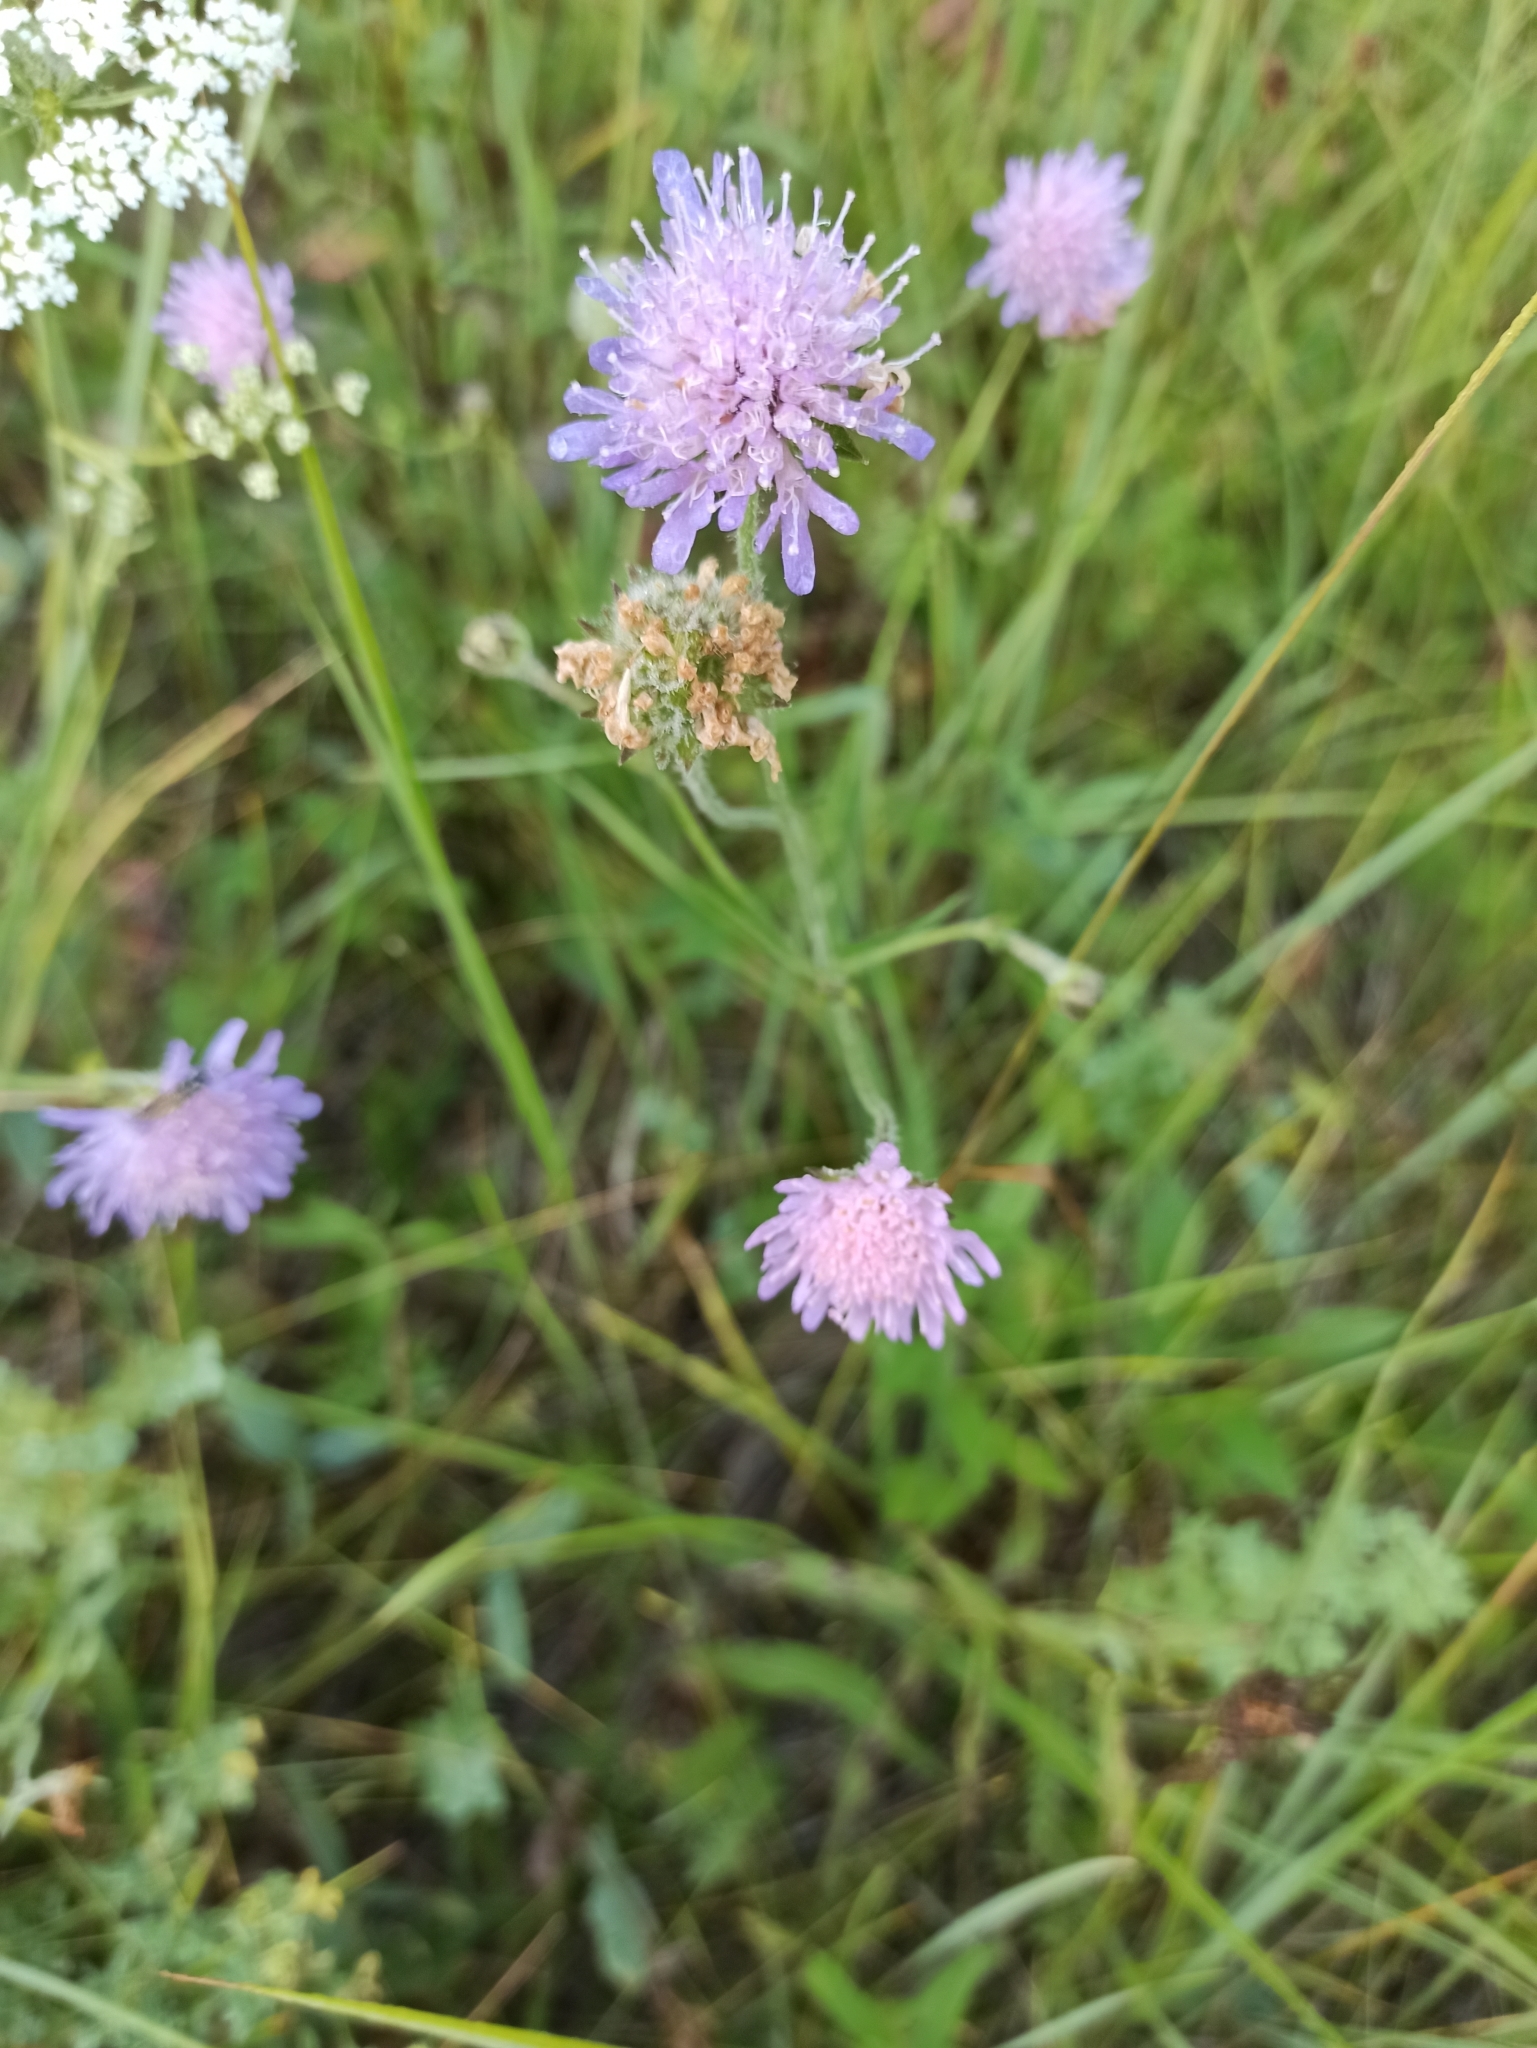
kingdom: Plantae
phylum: Tracheophyta
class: Magnoliopsida
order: Dipsacales
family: Caprifoliaceae
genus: Knautia
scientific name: Knautia arvensis
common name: Field scabiosa
